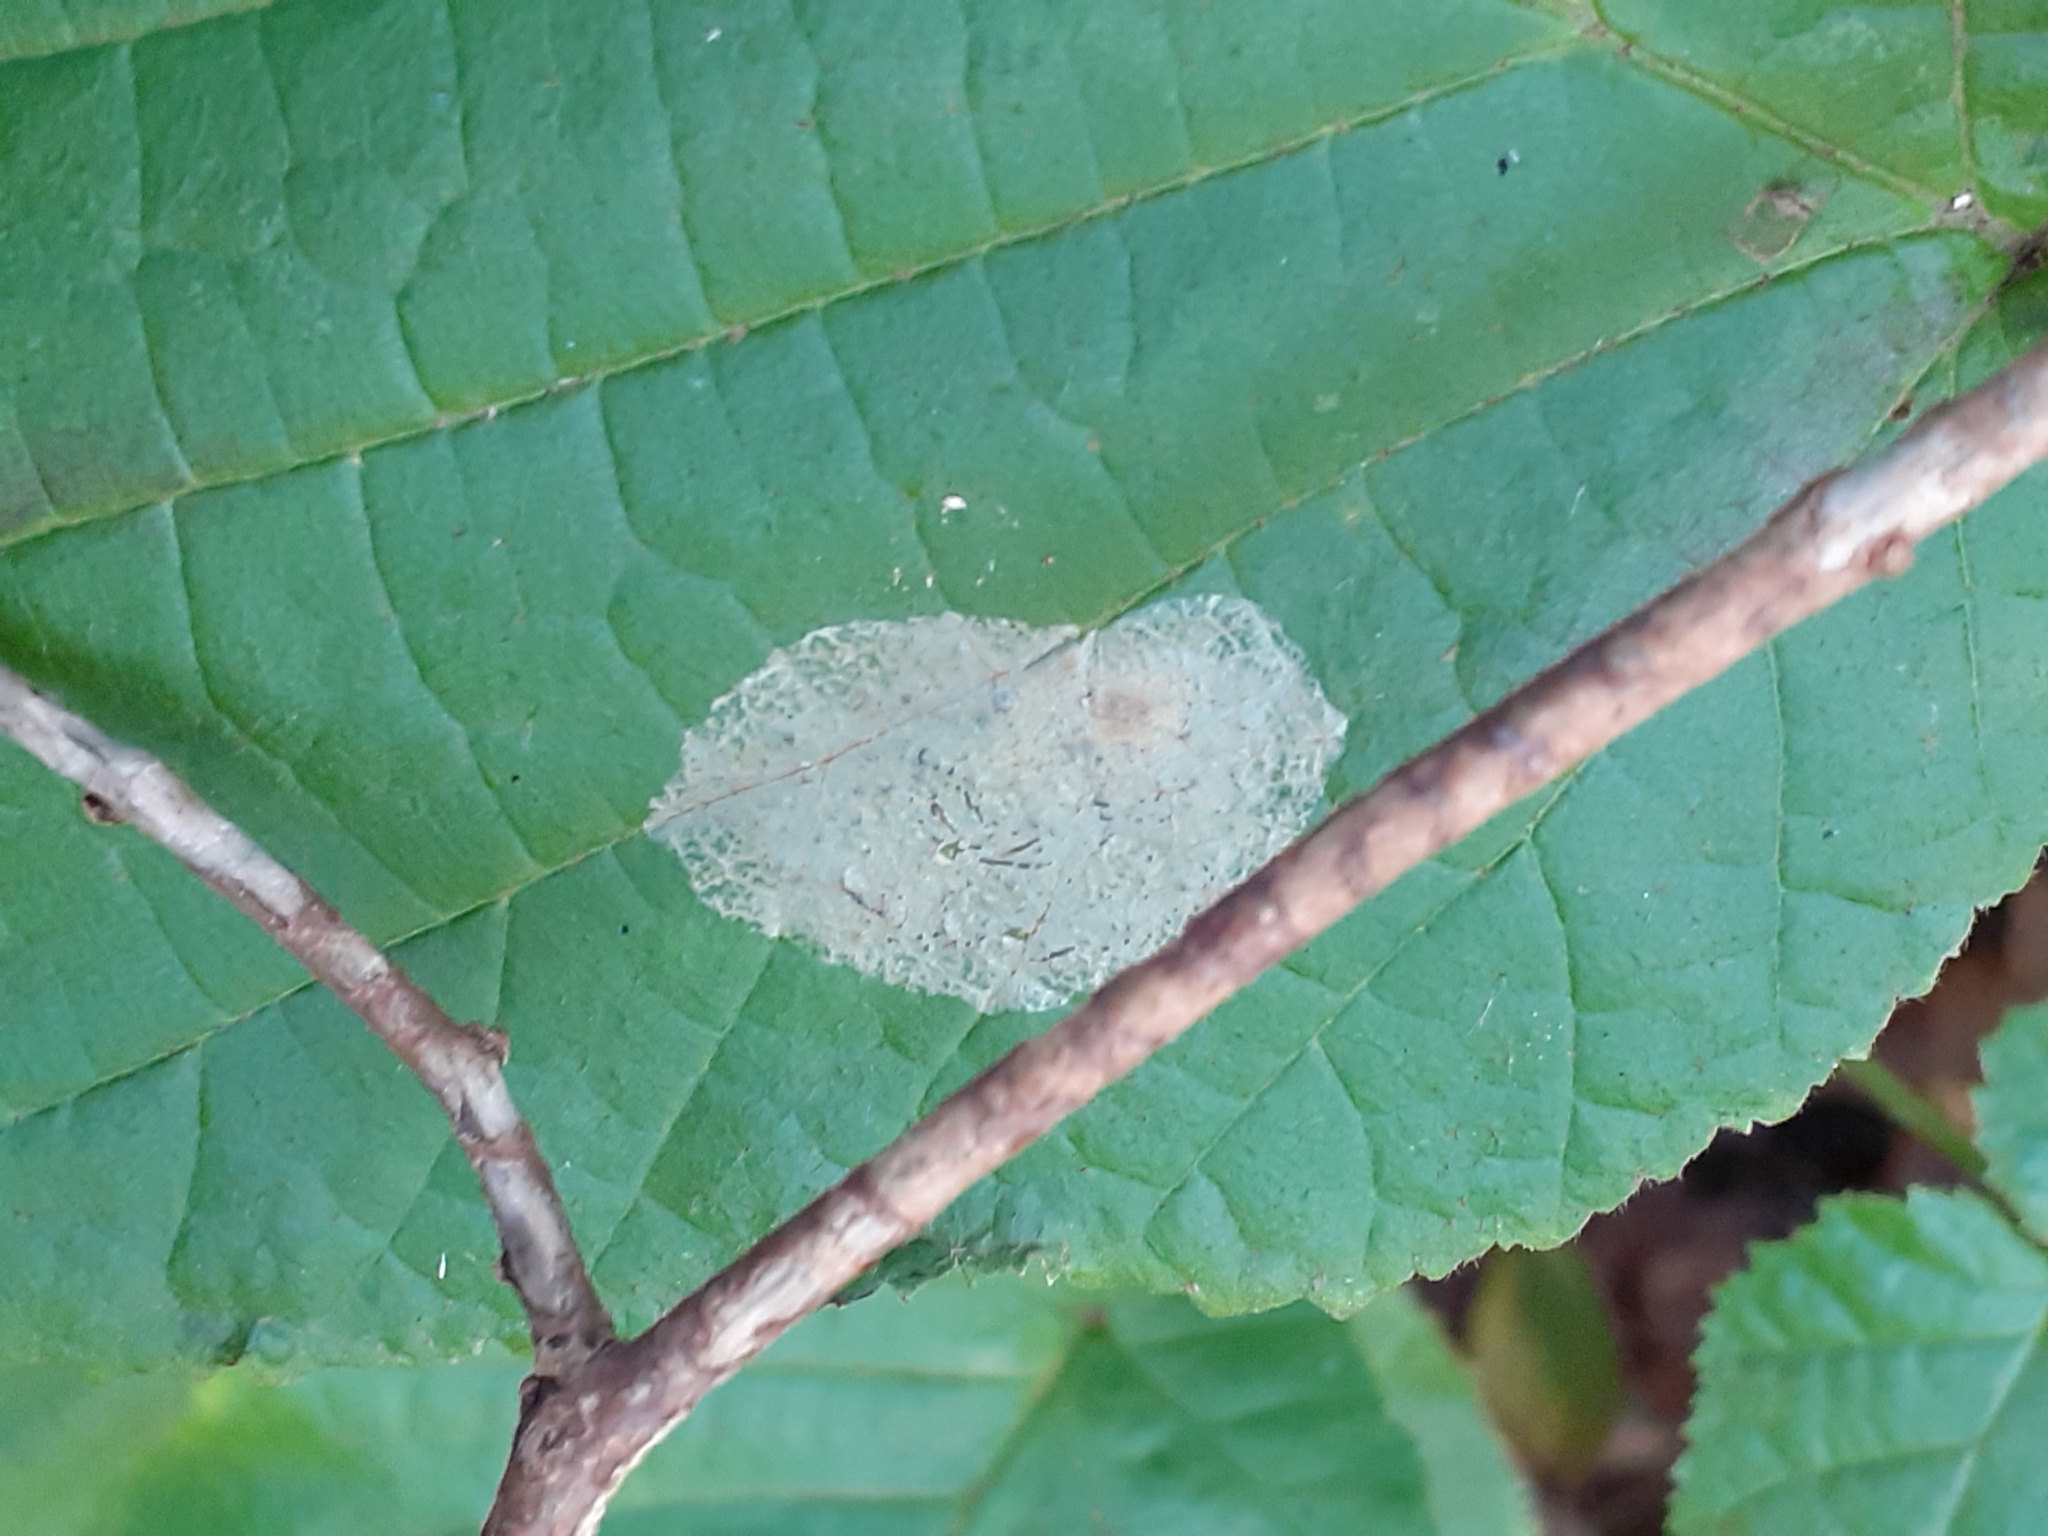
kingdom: Animalia
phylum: Arthropoda
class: Insecta
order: Lepidoptera
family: Gracillariidae
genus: Phyllonorycter
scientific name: Phyllonorycter coryli
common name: Nut-leaf blister moth
